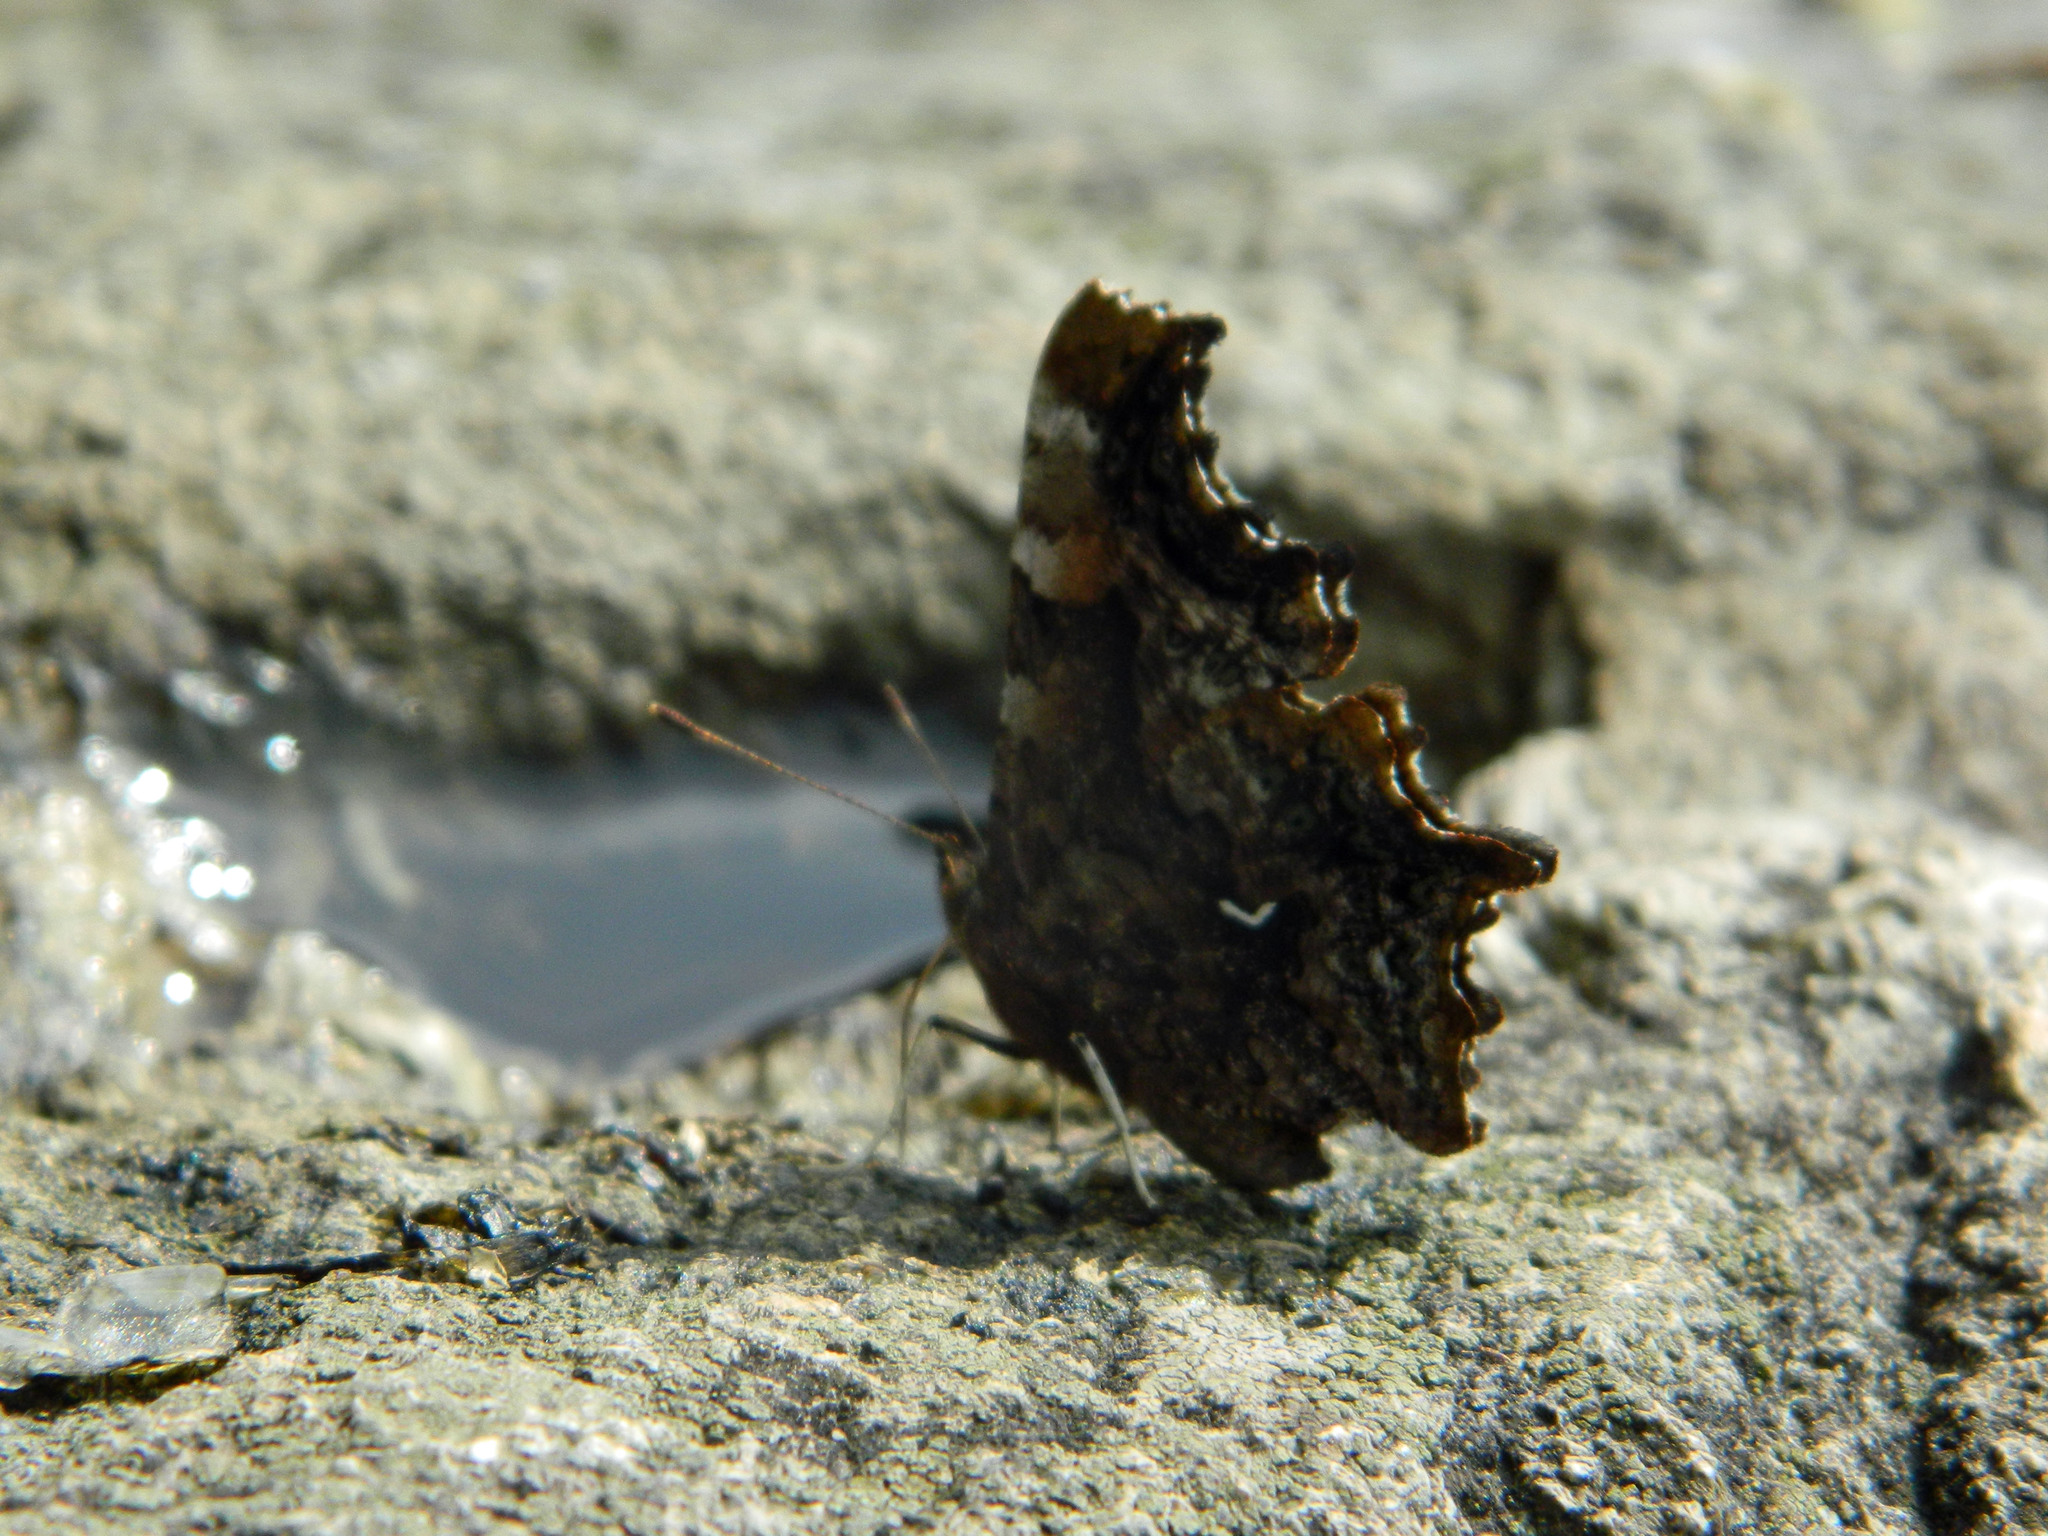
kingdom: Animalia
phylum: Arthropoda
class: Insecta
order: Lepidoptera
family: Nymphalidae
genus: Polygonia
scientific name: Polygonia faunus
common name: Green comma
